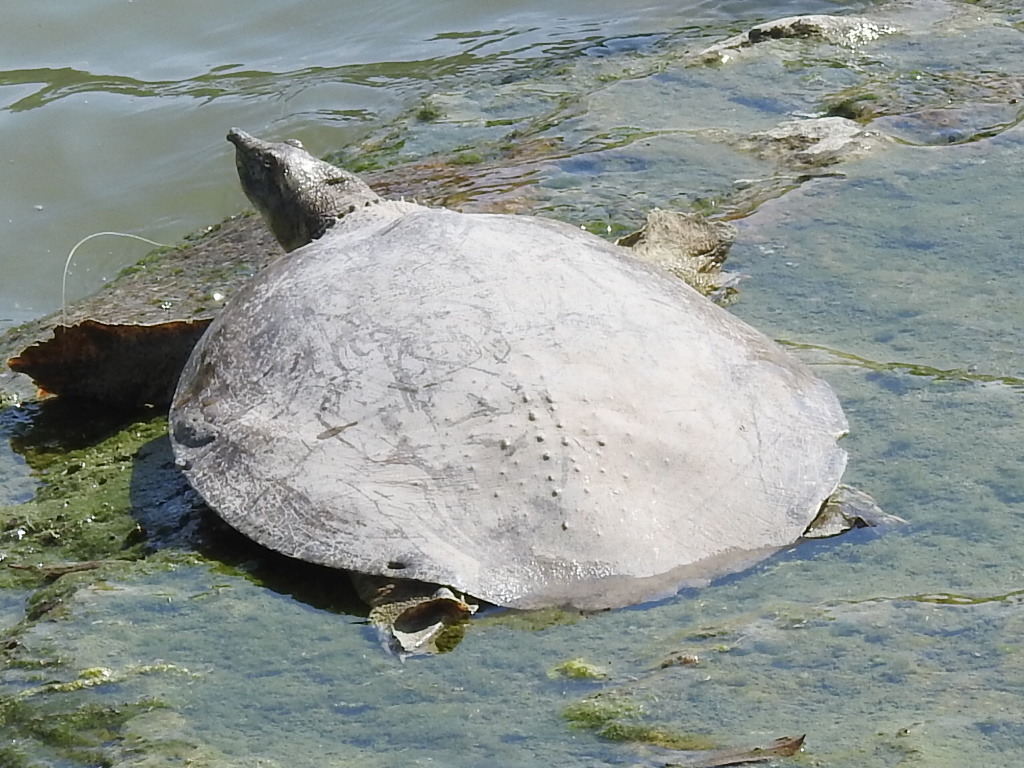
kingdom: Animalia
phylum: Chordata
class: Testudines
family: Trionychidae
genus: Apalone
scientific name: Apalone spinifera
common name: Spiny softshell turtle
